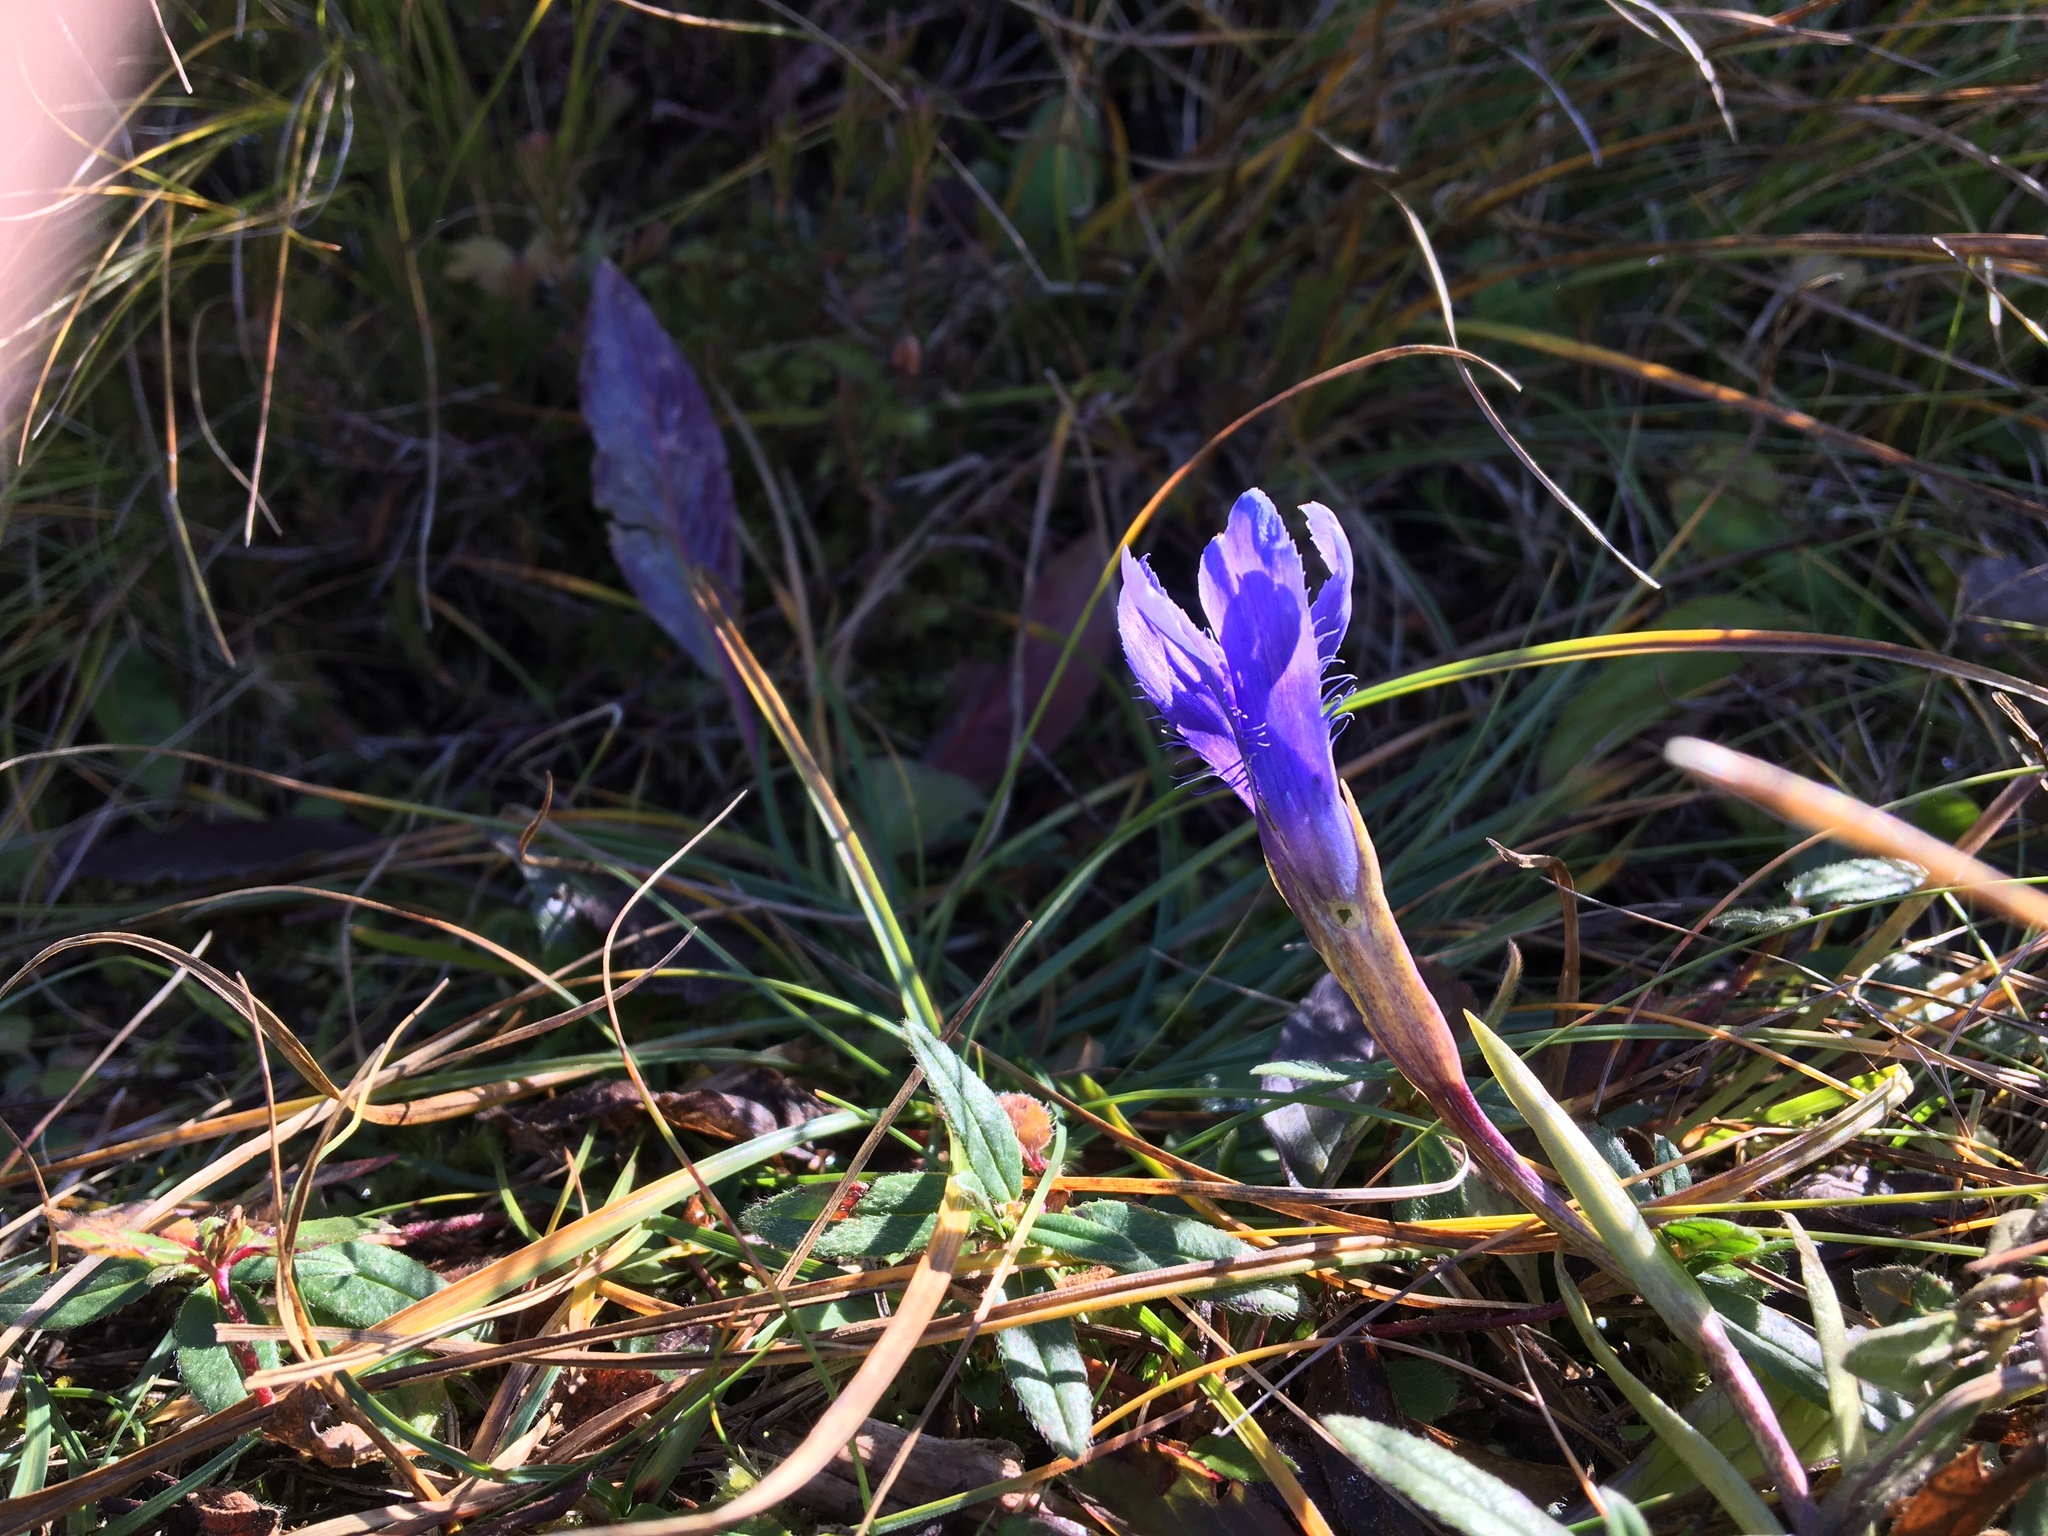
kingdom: Plantae
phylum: Tracheophyta
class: Magnoliopsida
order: Gentianales
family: Gentianaceae
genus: Gentianopsis
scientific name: Gentianopsis ciliata
